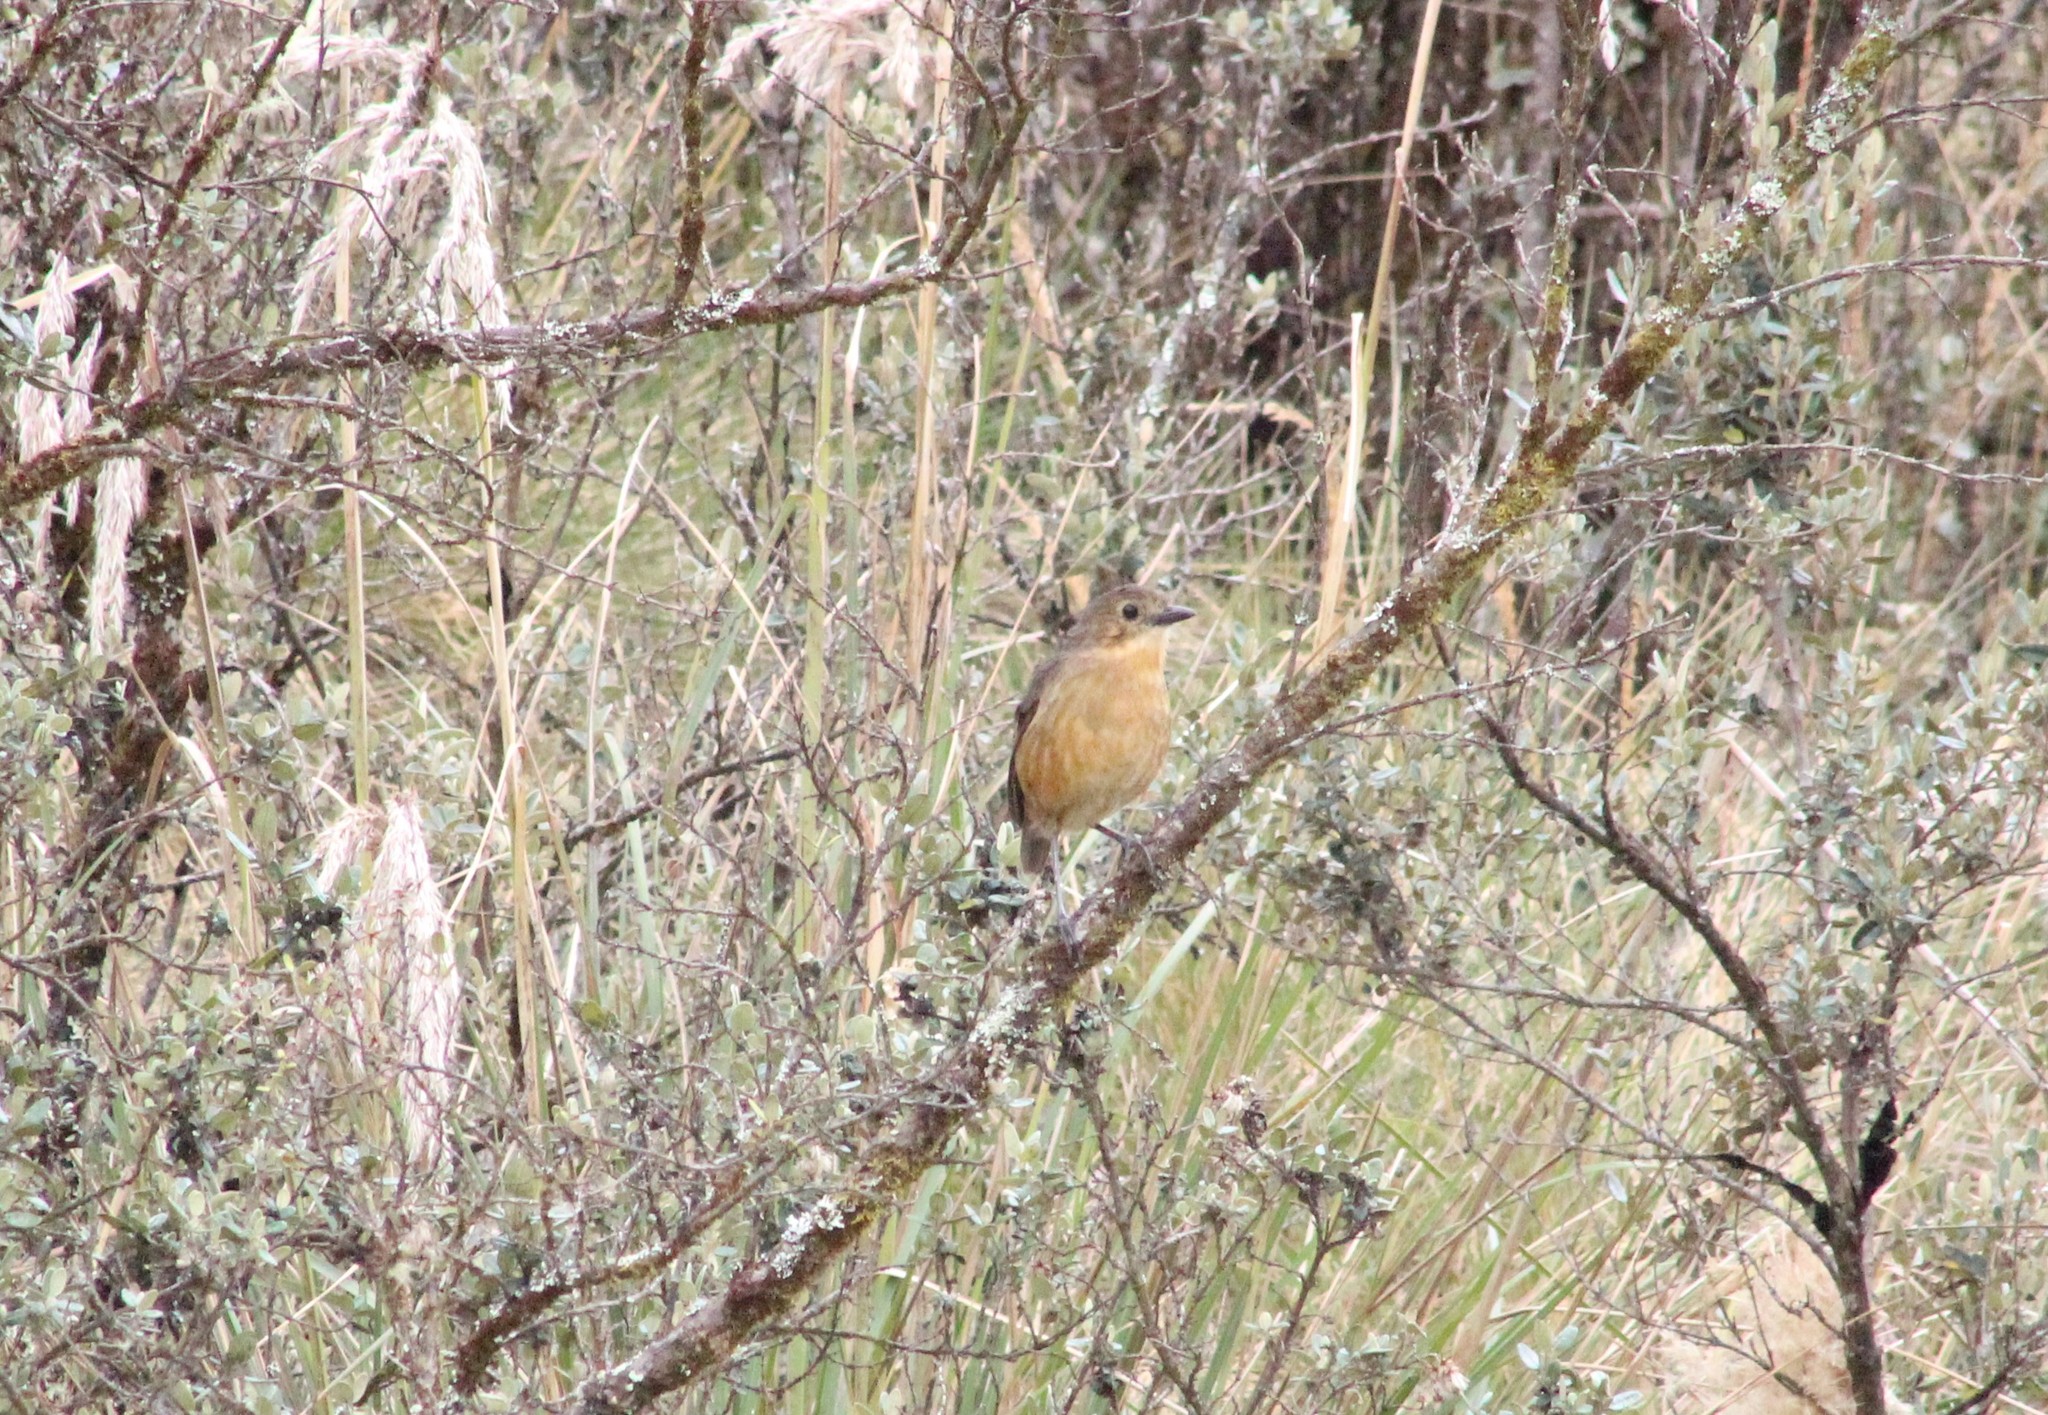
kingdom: Animalia
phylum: Chordata
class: Aves
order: Passeriformes
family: Grallariidae
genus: Grallaria
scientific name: Grallaria quitensis
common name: Tawny antpitta
